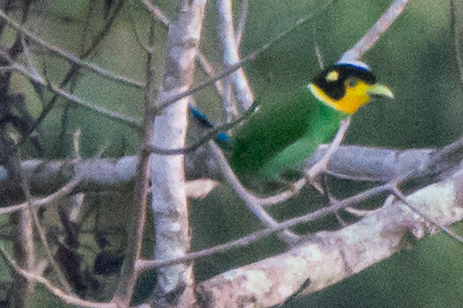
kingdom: Animalia
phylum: Chordata
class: Aves
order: Passeriformes
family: Eurylaimidae
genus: Psarisomus
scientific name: Psarisomus dalhousiae
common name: Long-tailed broadbill
